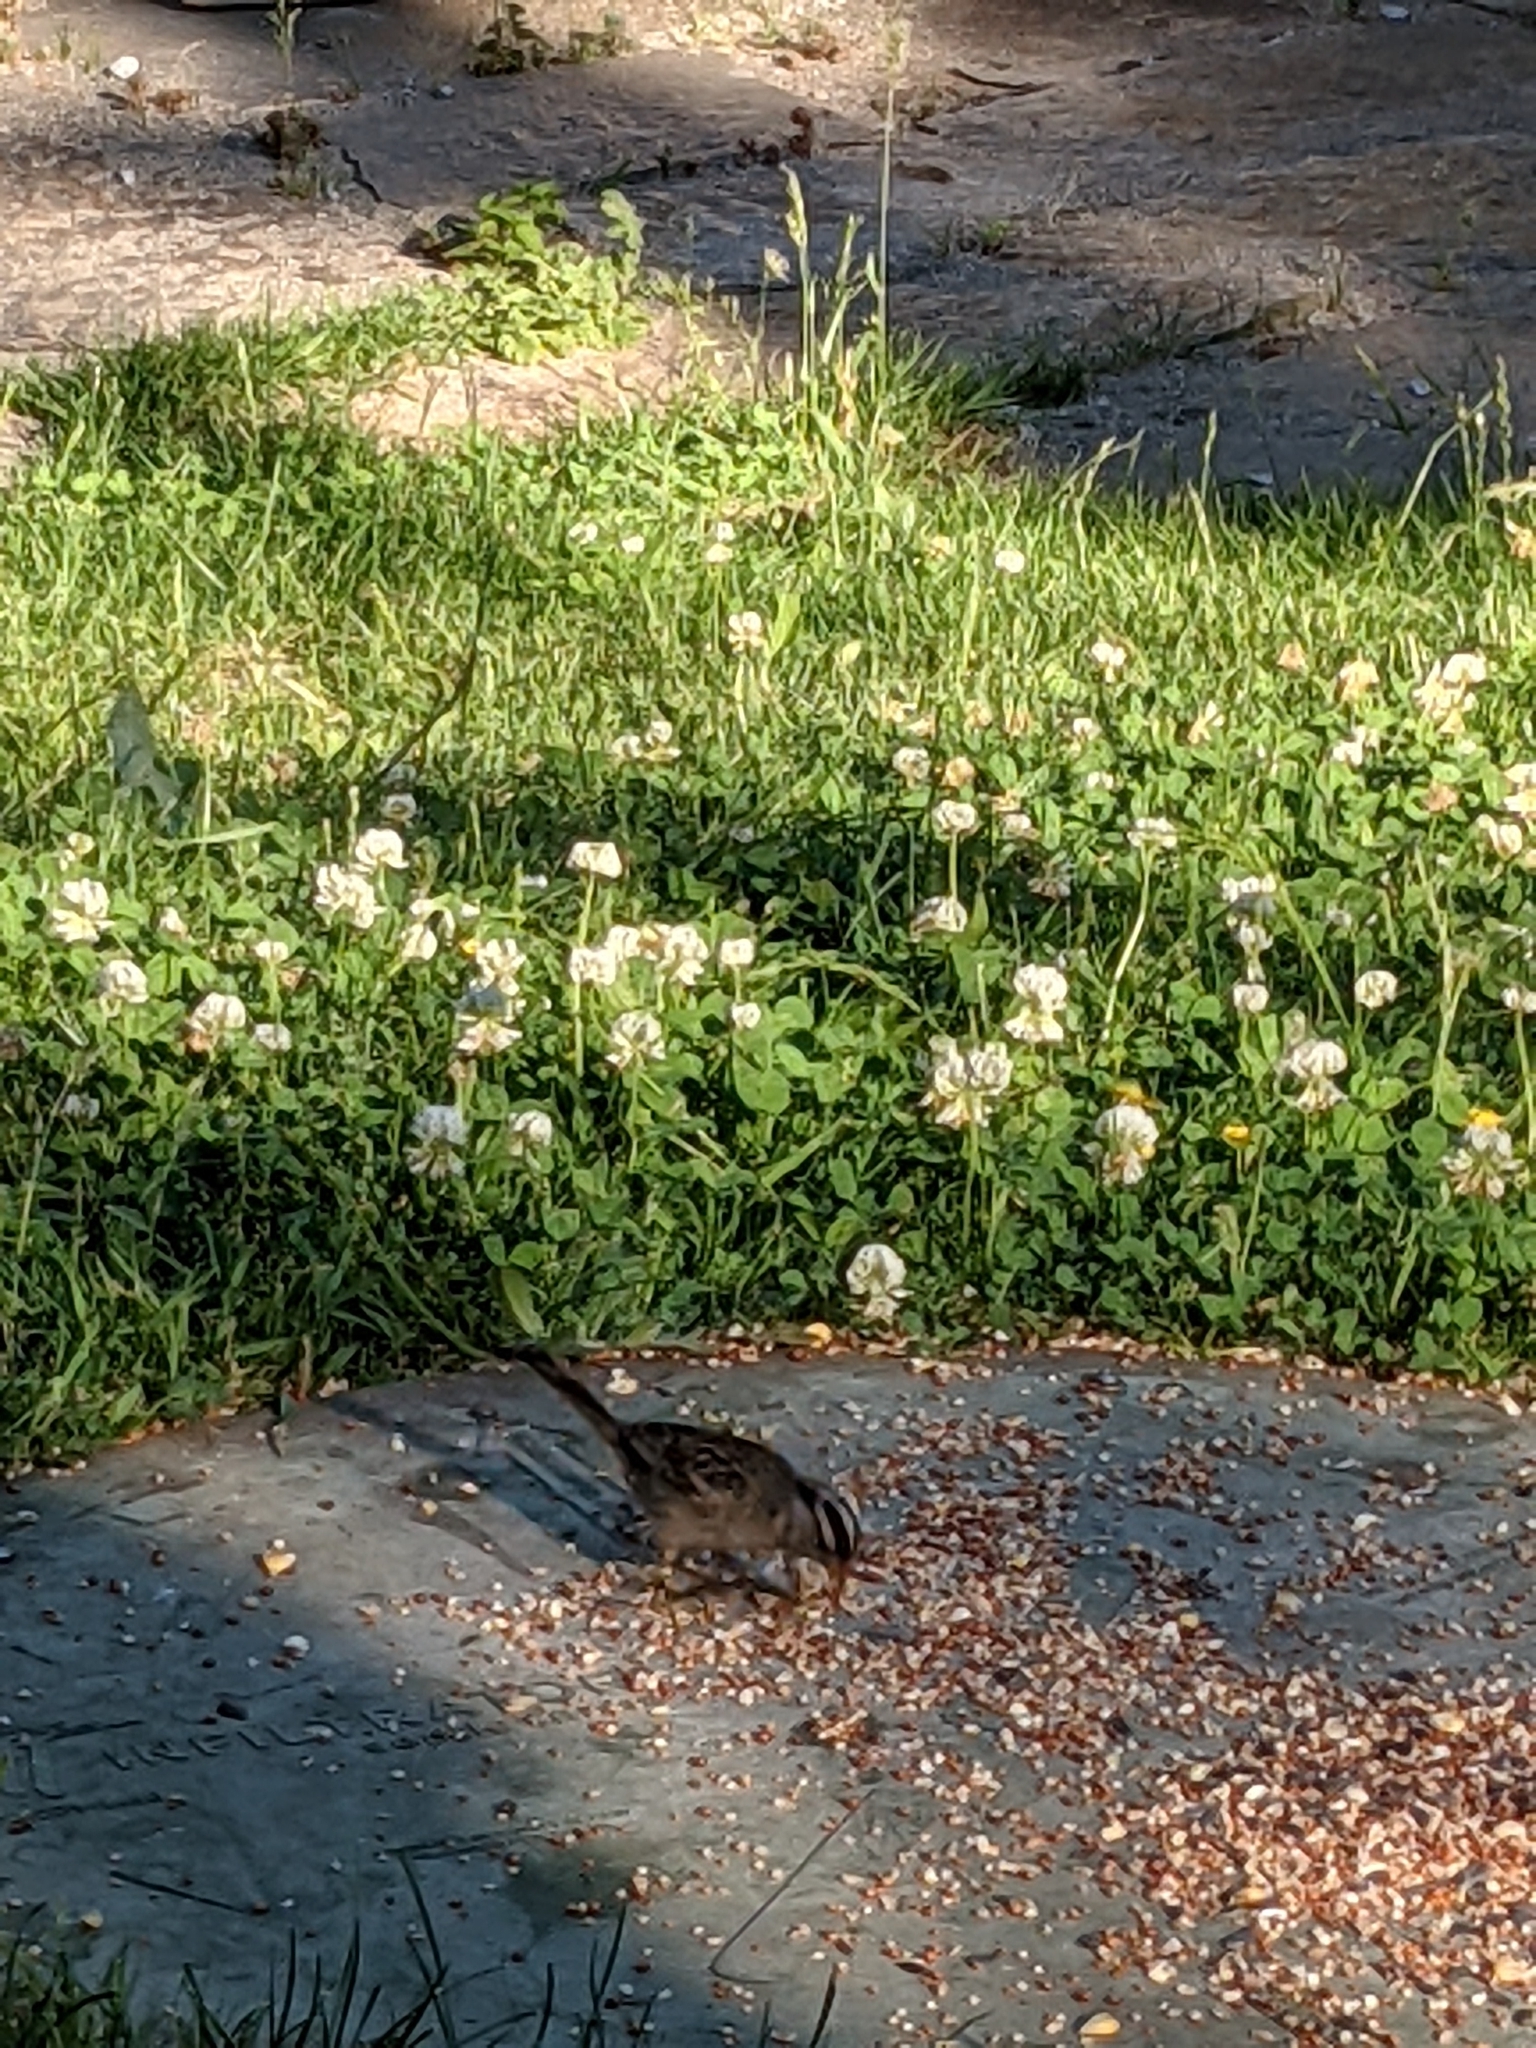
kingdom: Animalia
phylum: Chordata
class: Aves
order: Passeriformes
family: Passerellidae
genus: Zonotrichia
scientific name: Zonotrichia leucophrys
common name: White-crowned sparrow
